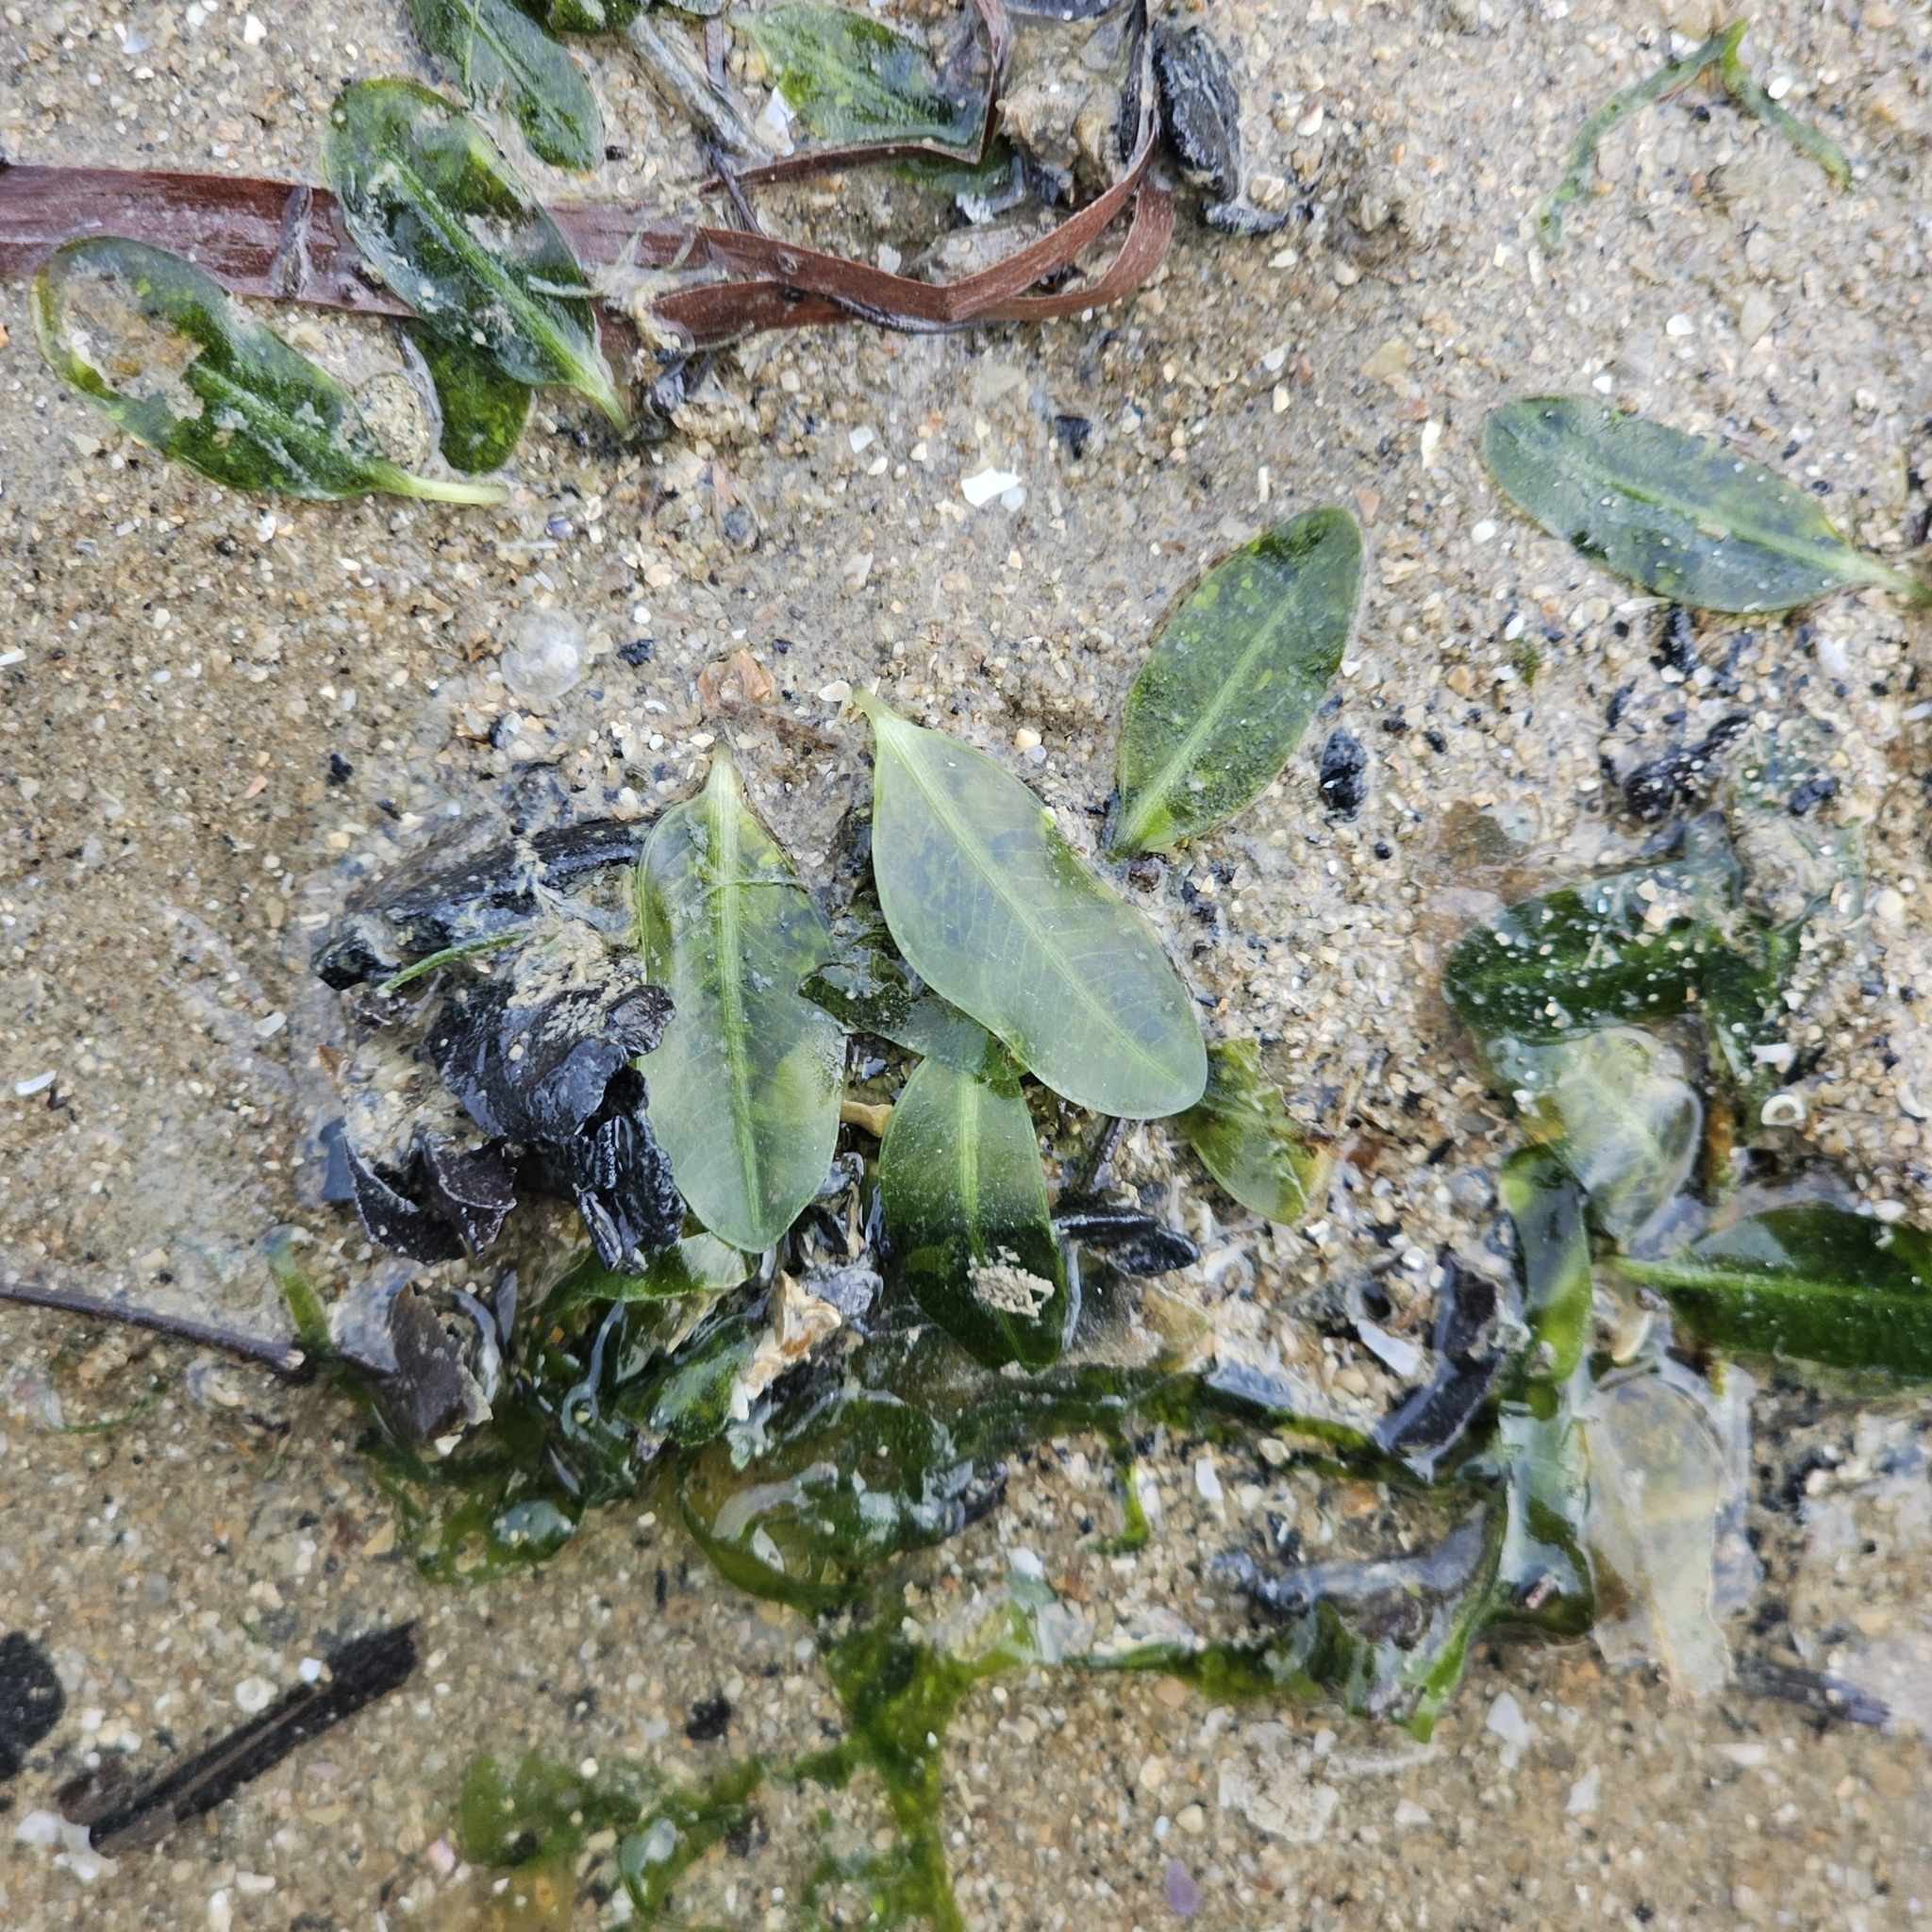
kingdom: Plantae
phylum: Tracheophyta
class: Liliopsida
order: Alismatales
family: Hydrocharitaceae
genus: Halophila
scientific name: Halophila ovalis
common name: Species code: ho
